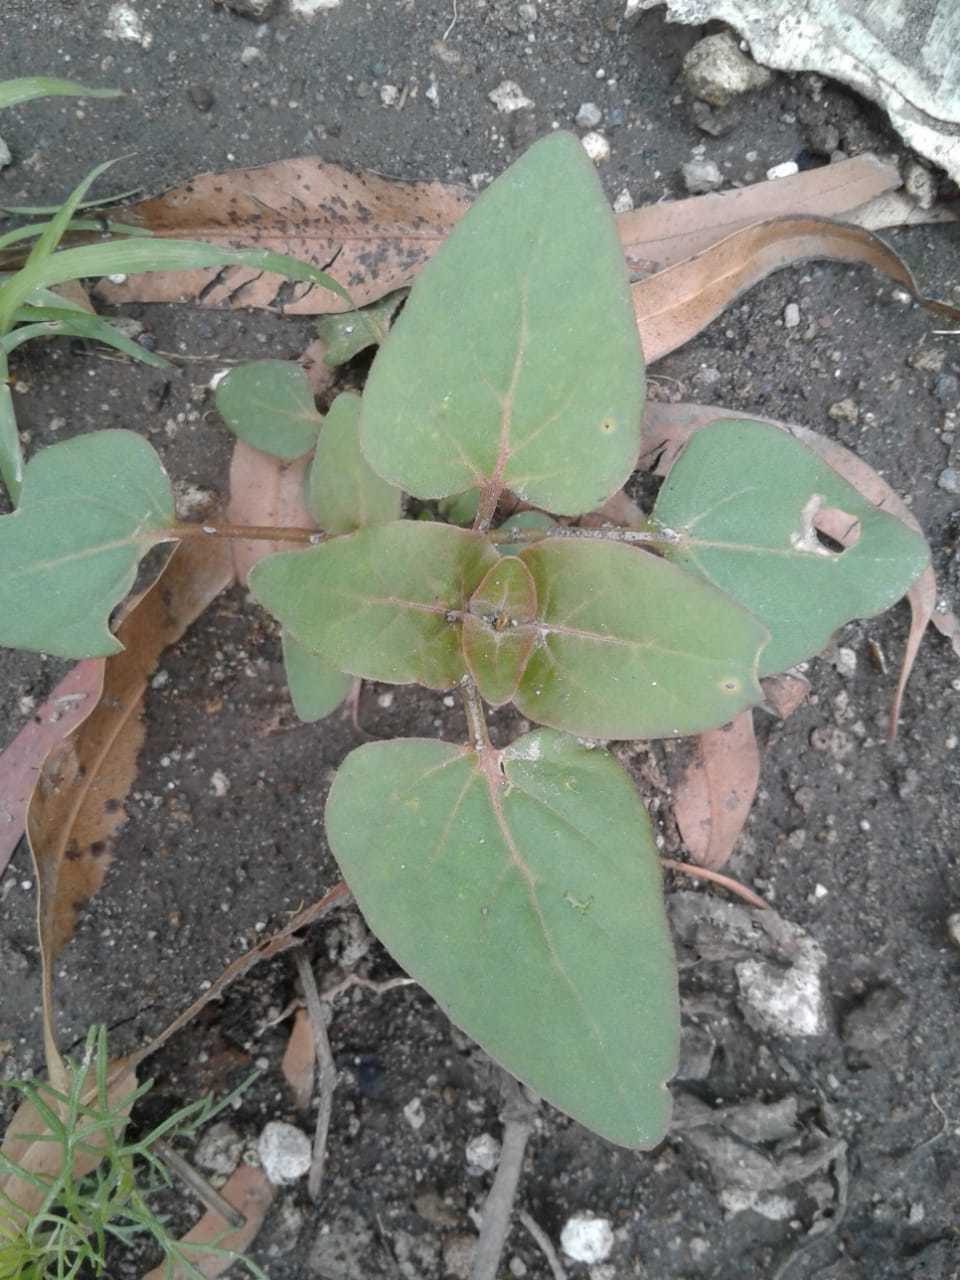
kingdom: Plantae
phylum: Tracheophyta
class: Magnoliopsida
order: Caryophyllales
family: Nyctaginaceae
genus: Mirabilis
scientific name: Mirabilis nyctaginea
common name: Umbrella wort
